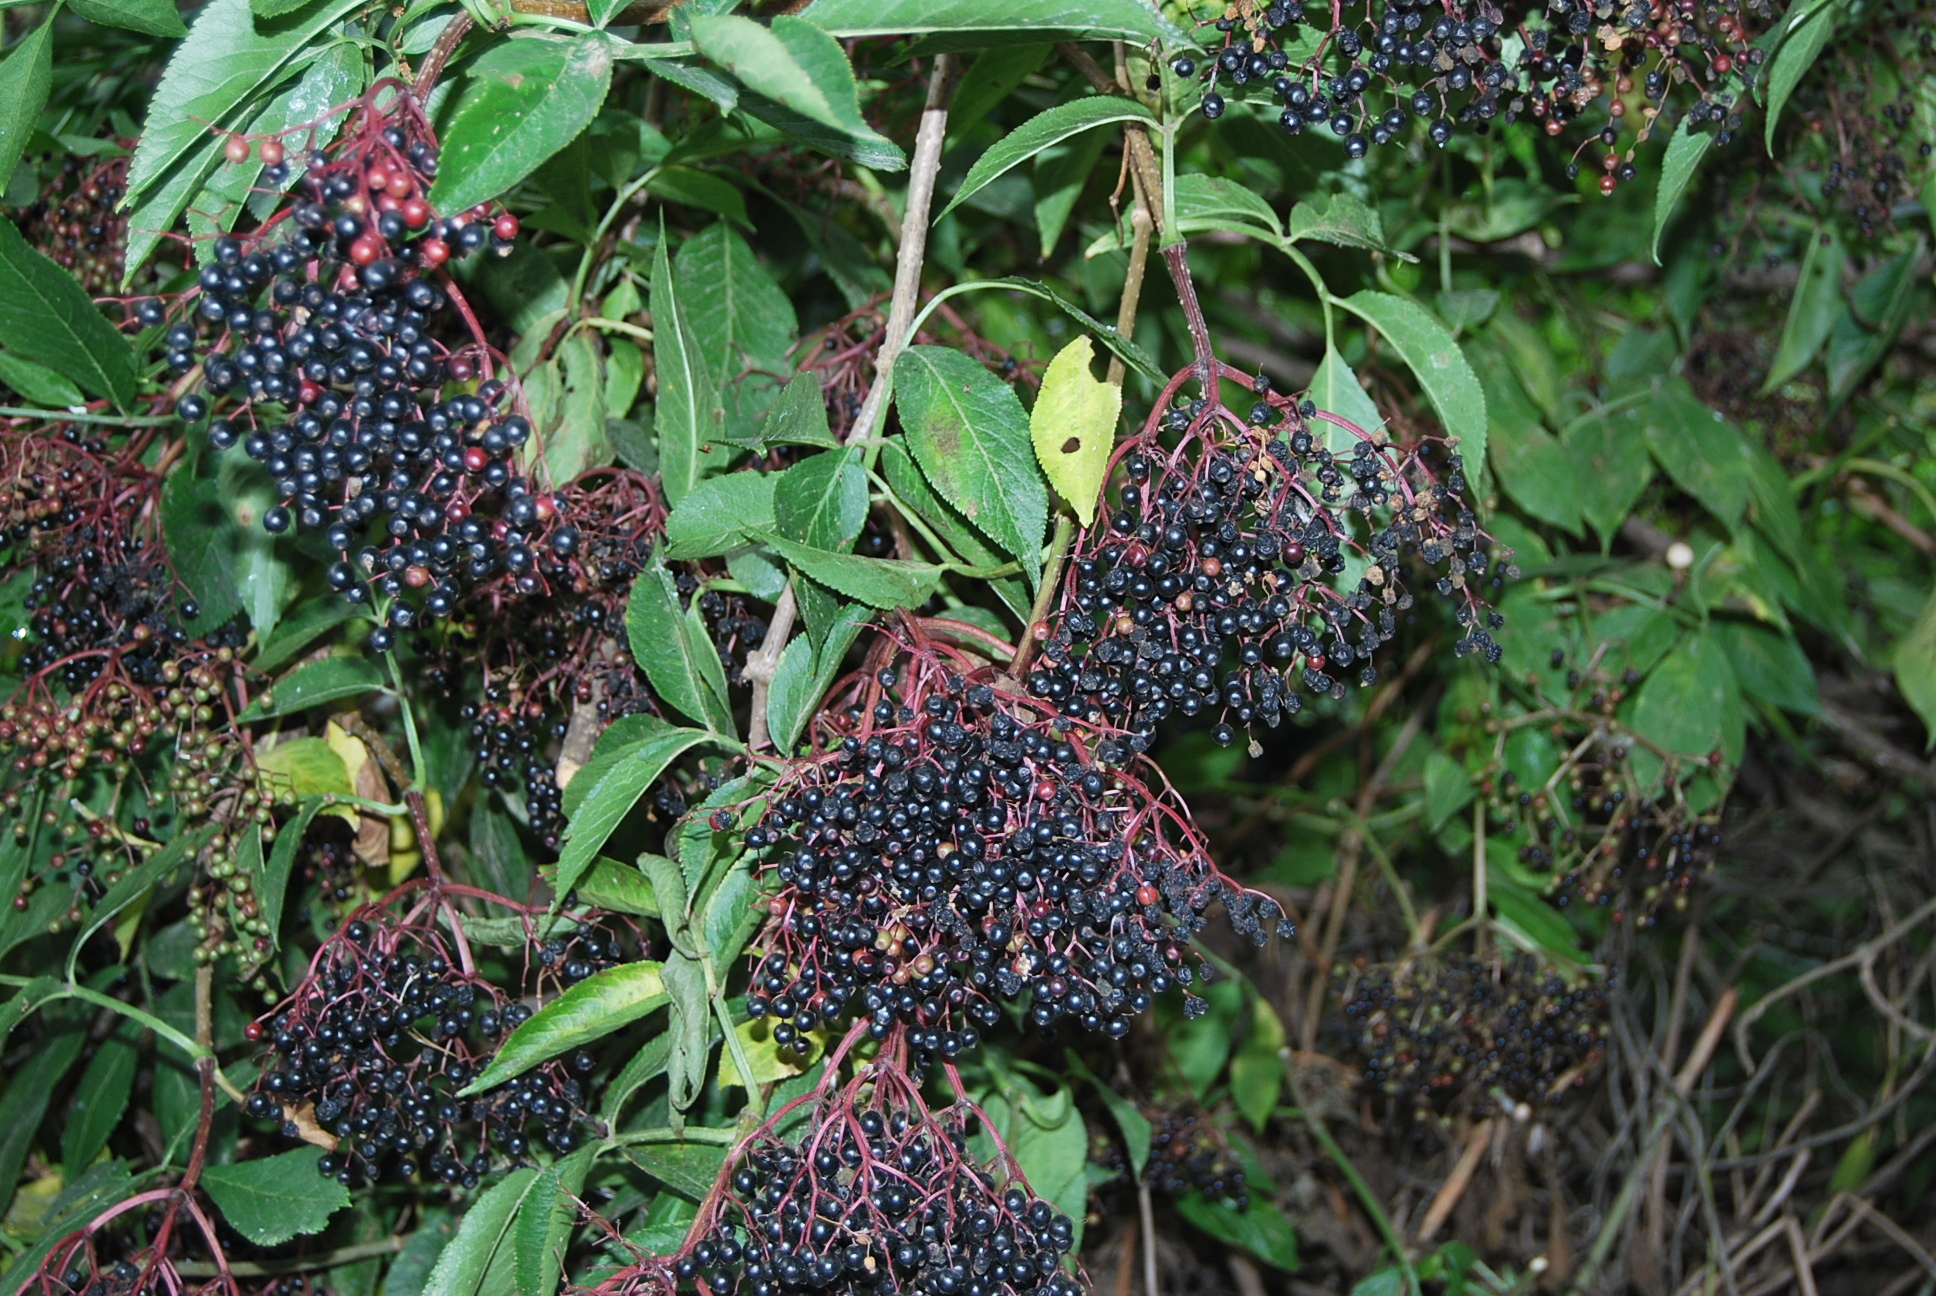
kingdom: Plantae
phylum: Tracheophyta
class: Magnoliopsida
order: Dipsacales
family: Viburnaceae
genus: Sambucus
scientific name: Sambucus nigra
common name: Elder
